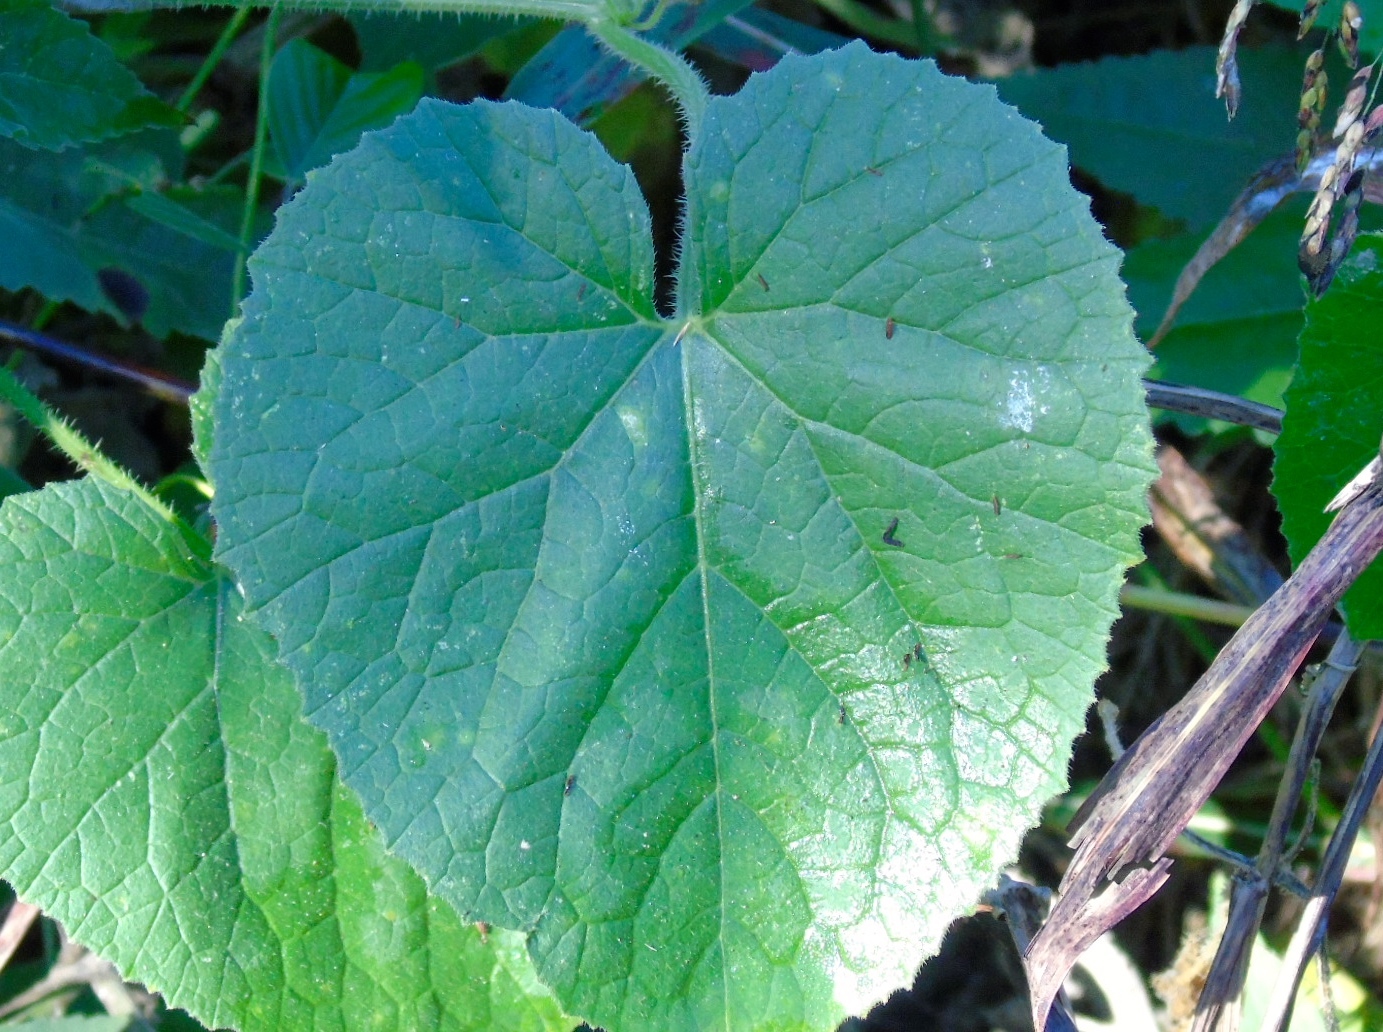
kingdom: Plantae
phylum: Tracheophyta
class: Magnoliopsida
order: Cucurbitales
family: Cucurbitaceae
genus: Cucumis
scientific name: Cucumis dipsaceus
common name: Hedgehog gourd
